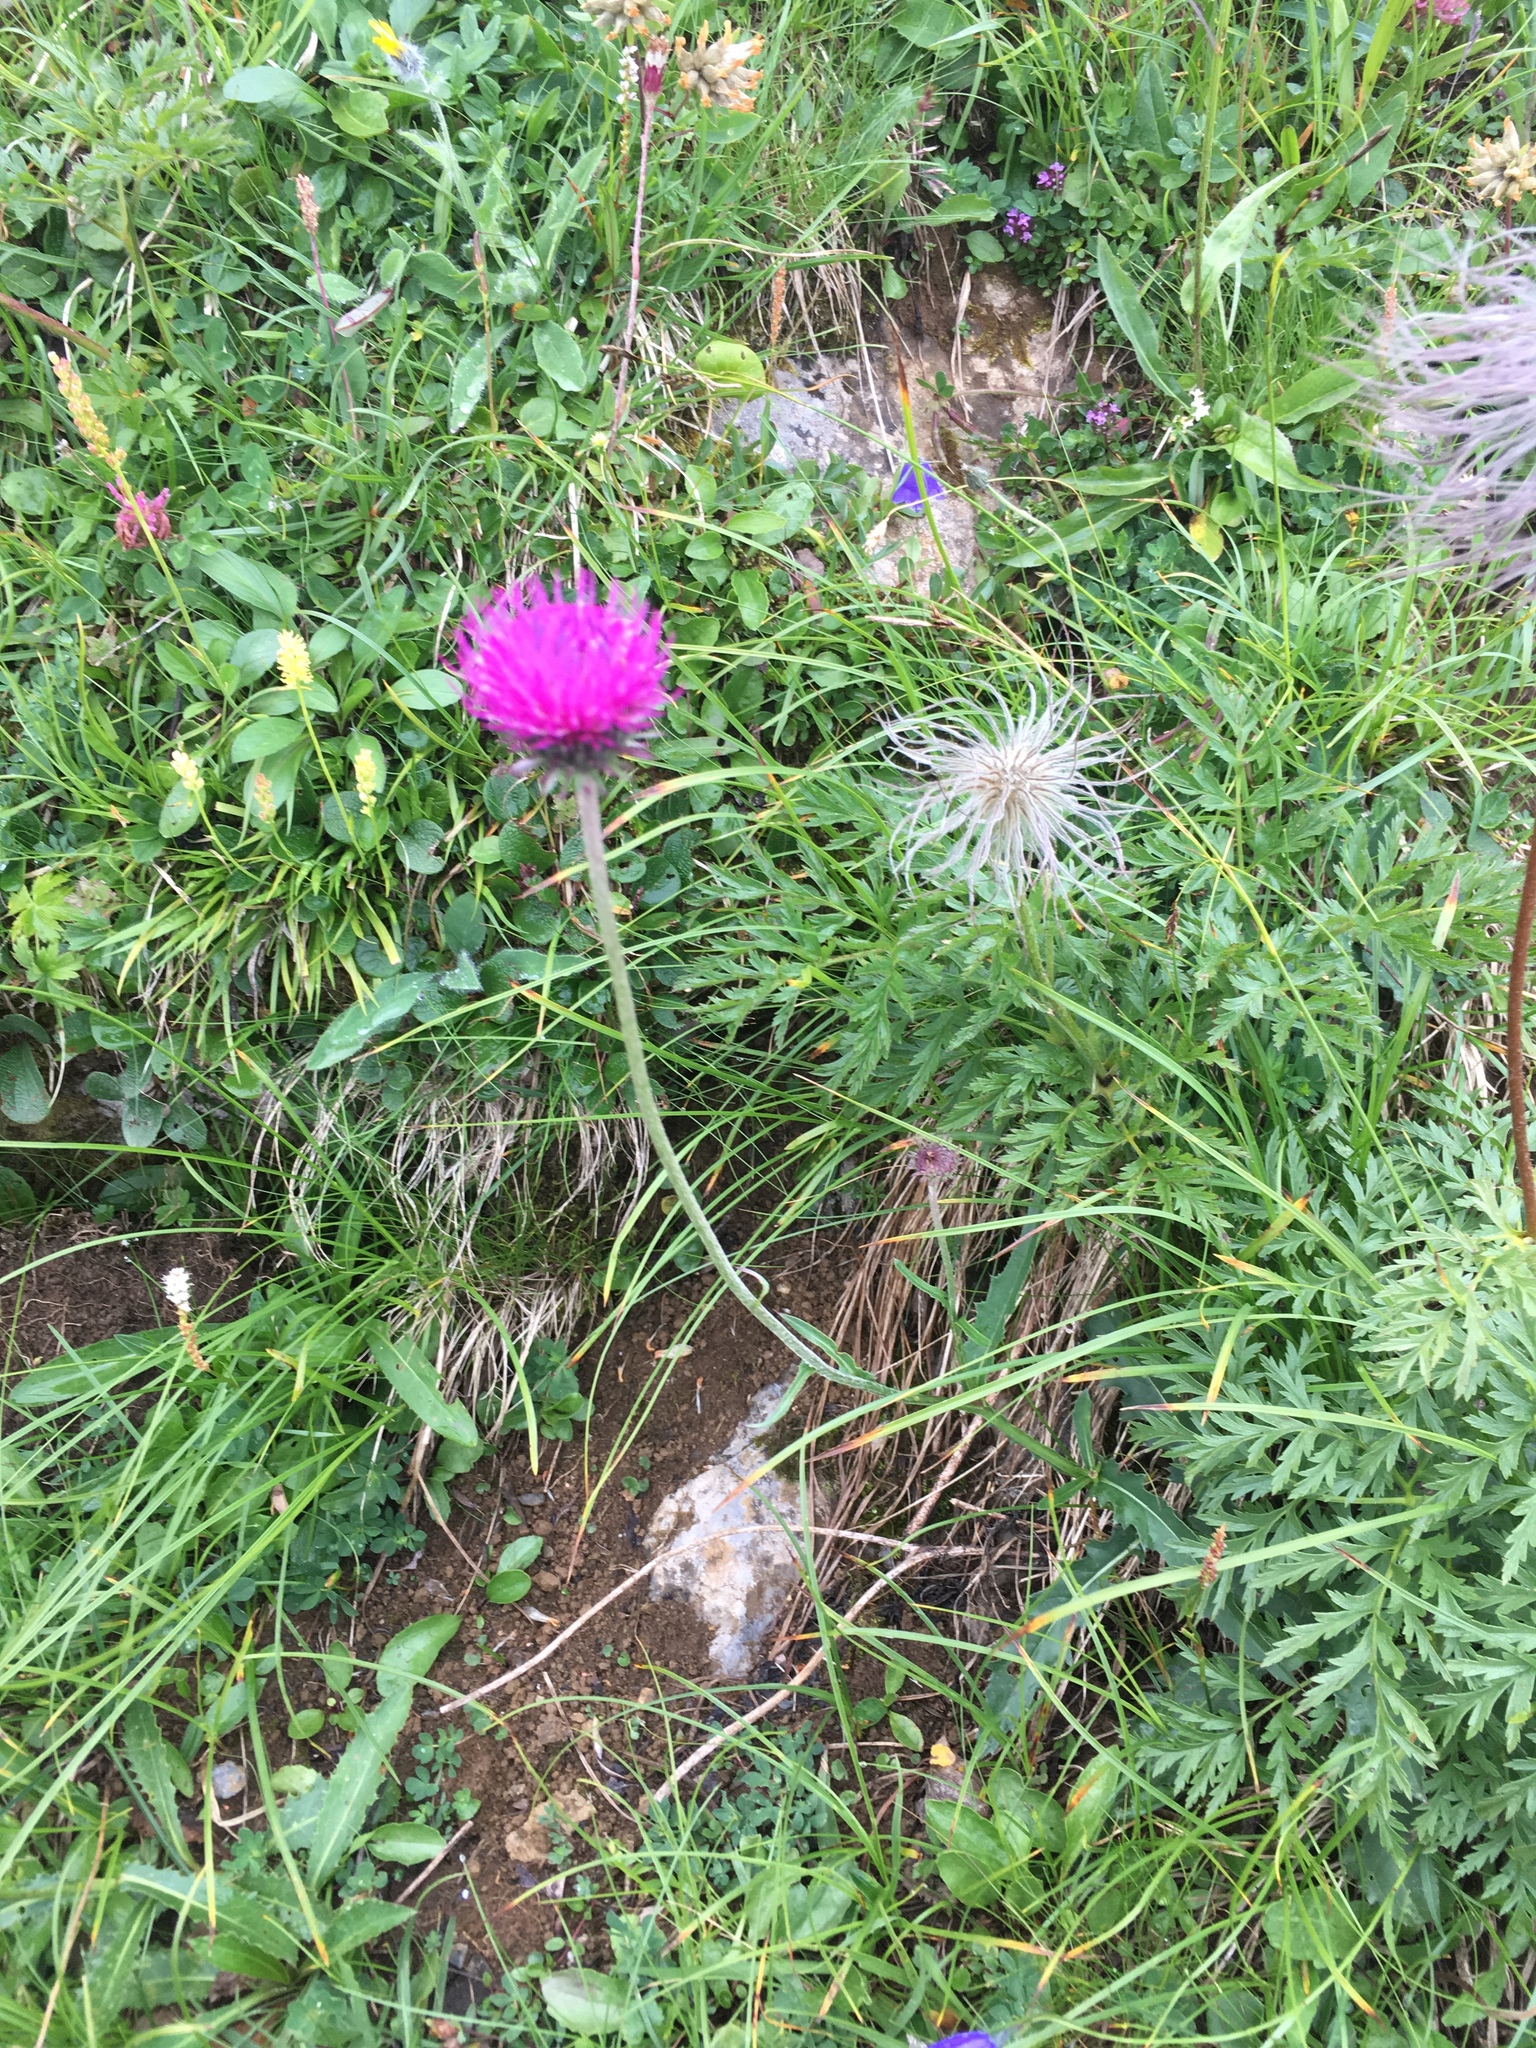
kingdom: Plantae
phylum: Tracheophyta
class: Magnoliopsida
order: Asterales
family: Asteraceae
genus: Carduus
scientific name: Carduus defloratus
